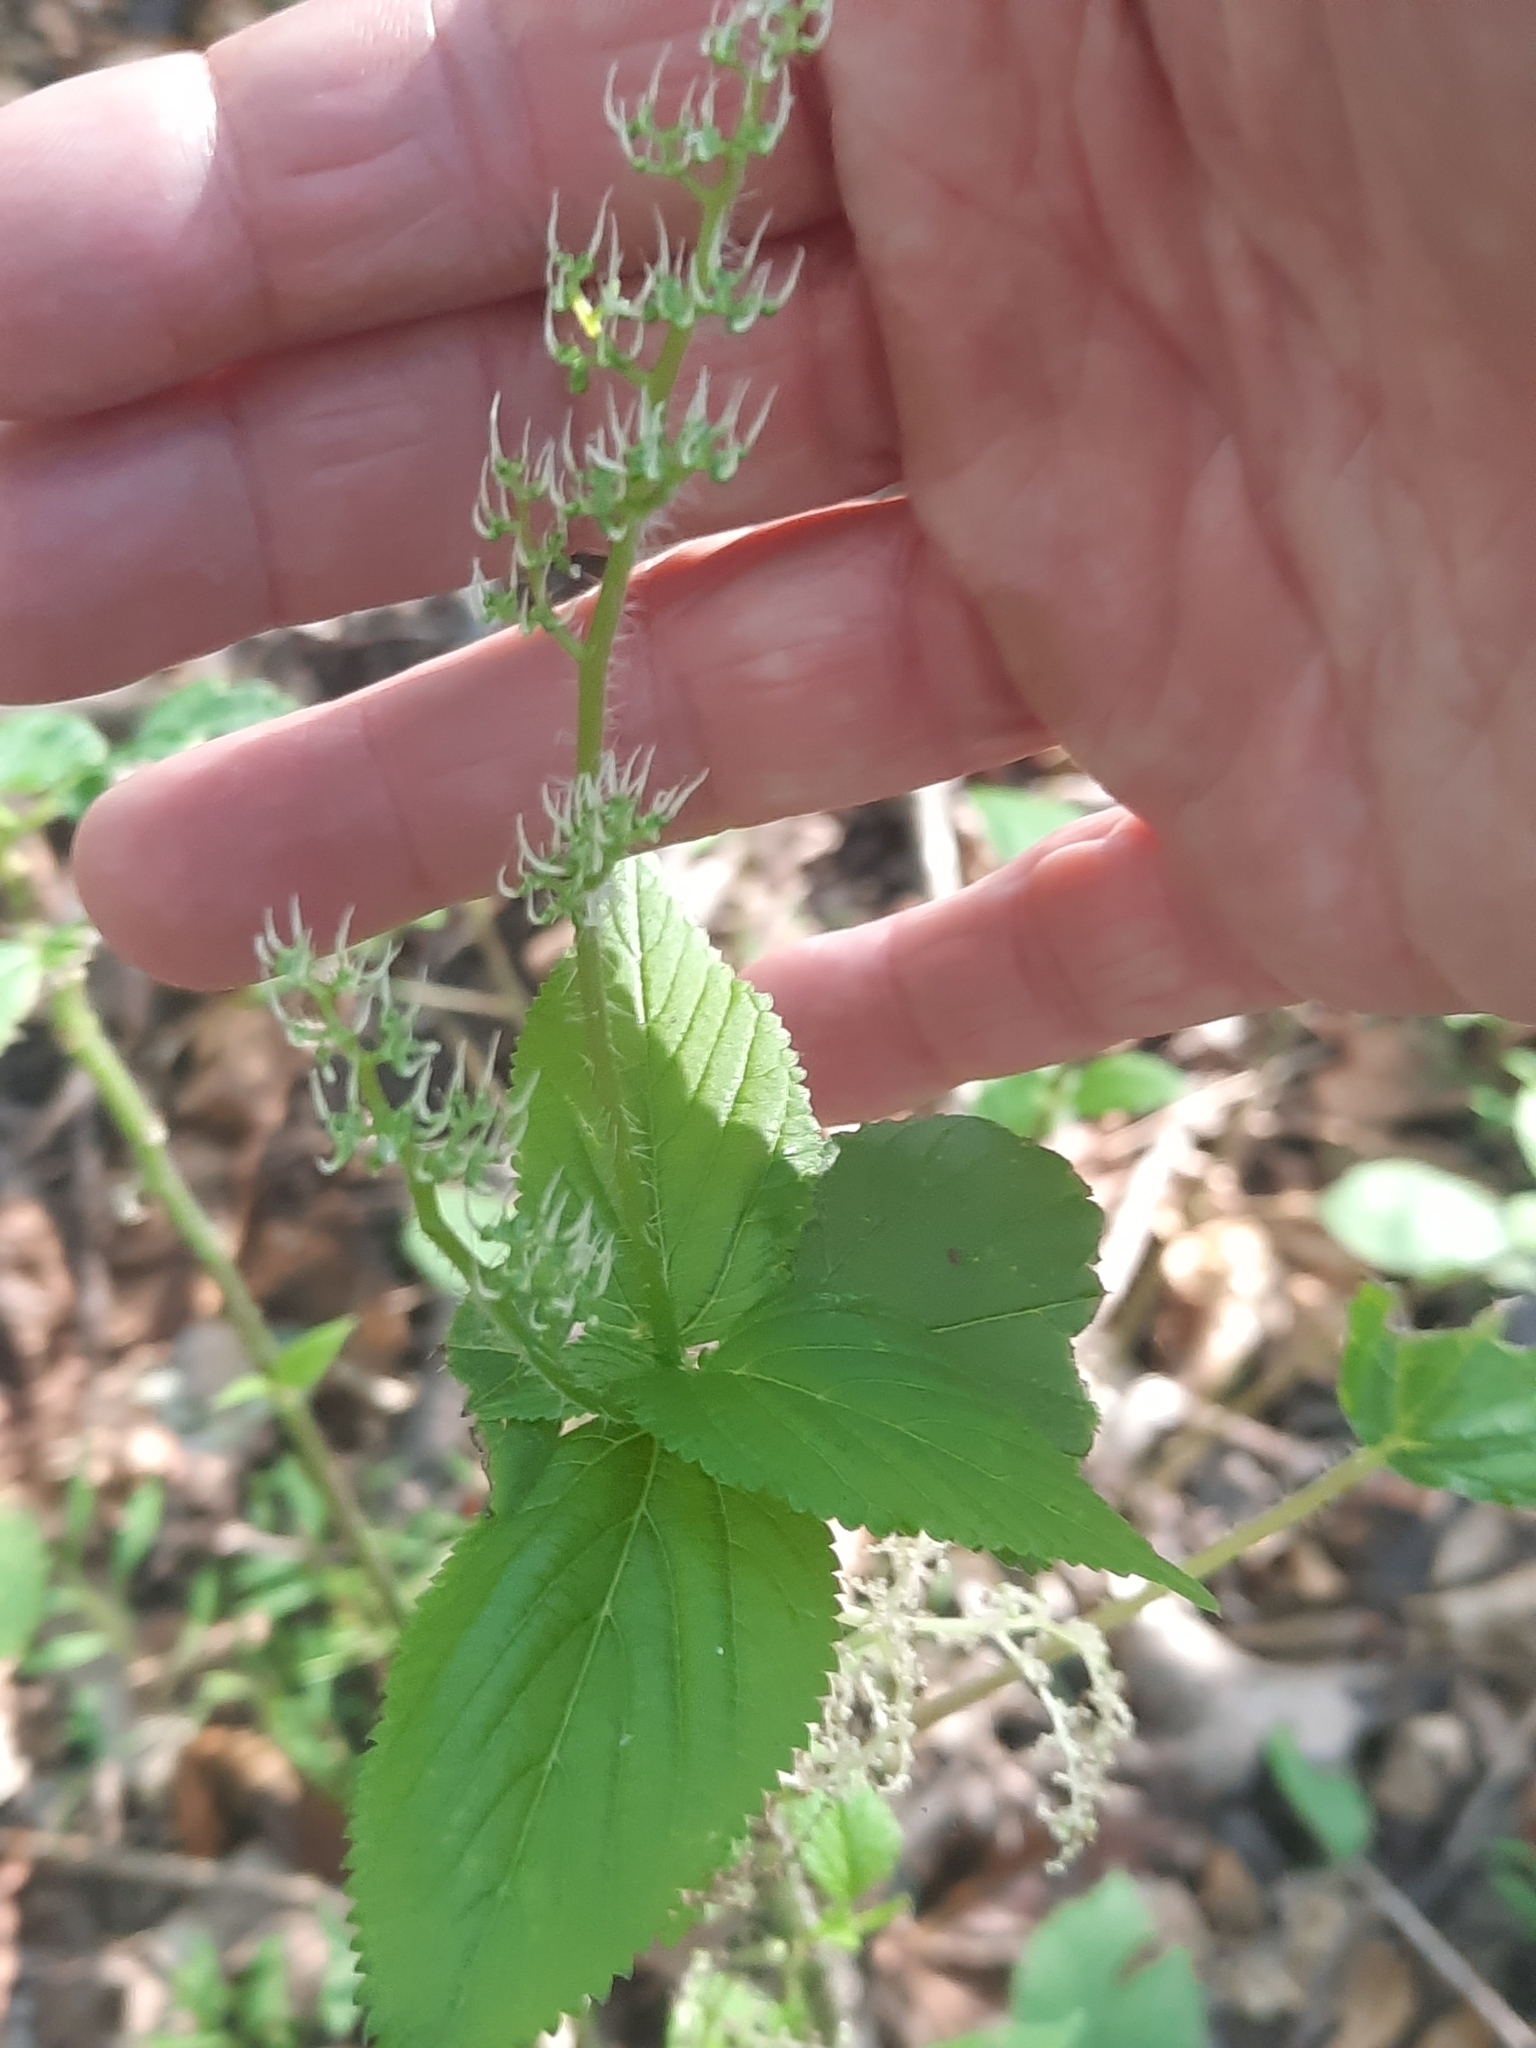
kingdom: Plantae
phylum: Tracheophyta
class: Magnoliopsida
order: Rosales
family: Urticaceae
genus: Laportea
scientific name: Laportea canadensis
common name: Canada nettle
